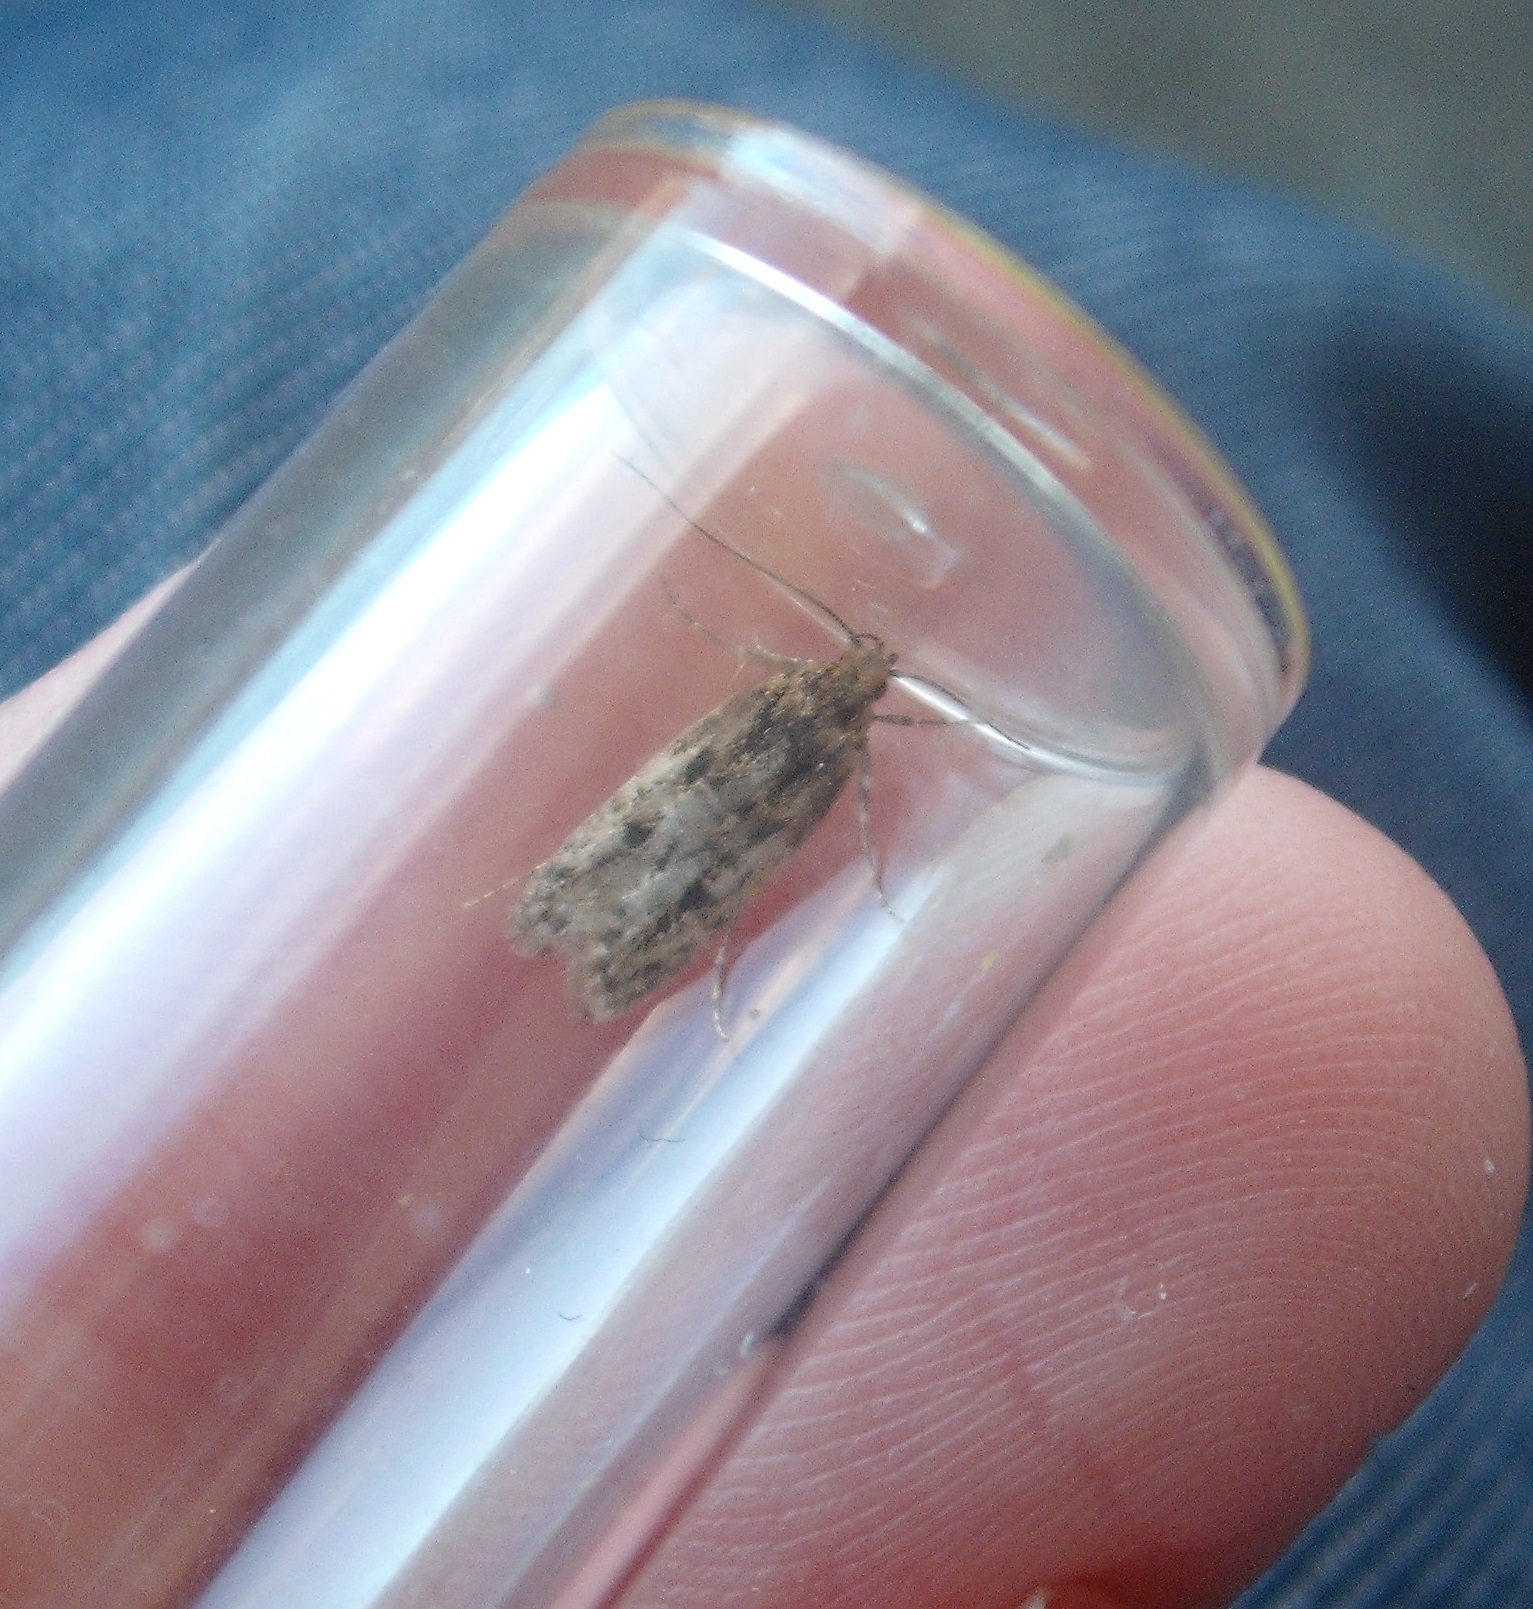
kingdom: Animalia
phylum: Arthropoda
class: Insecta
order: Lepidoptera
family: Oecophoridae
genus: Gymnobathra
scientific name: Gymnobathra dinocosma
